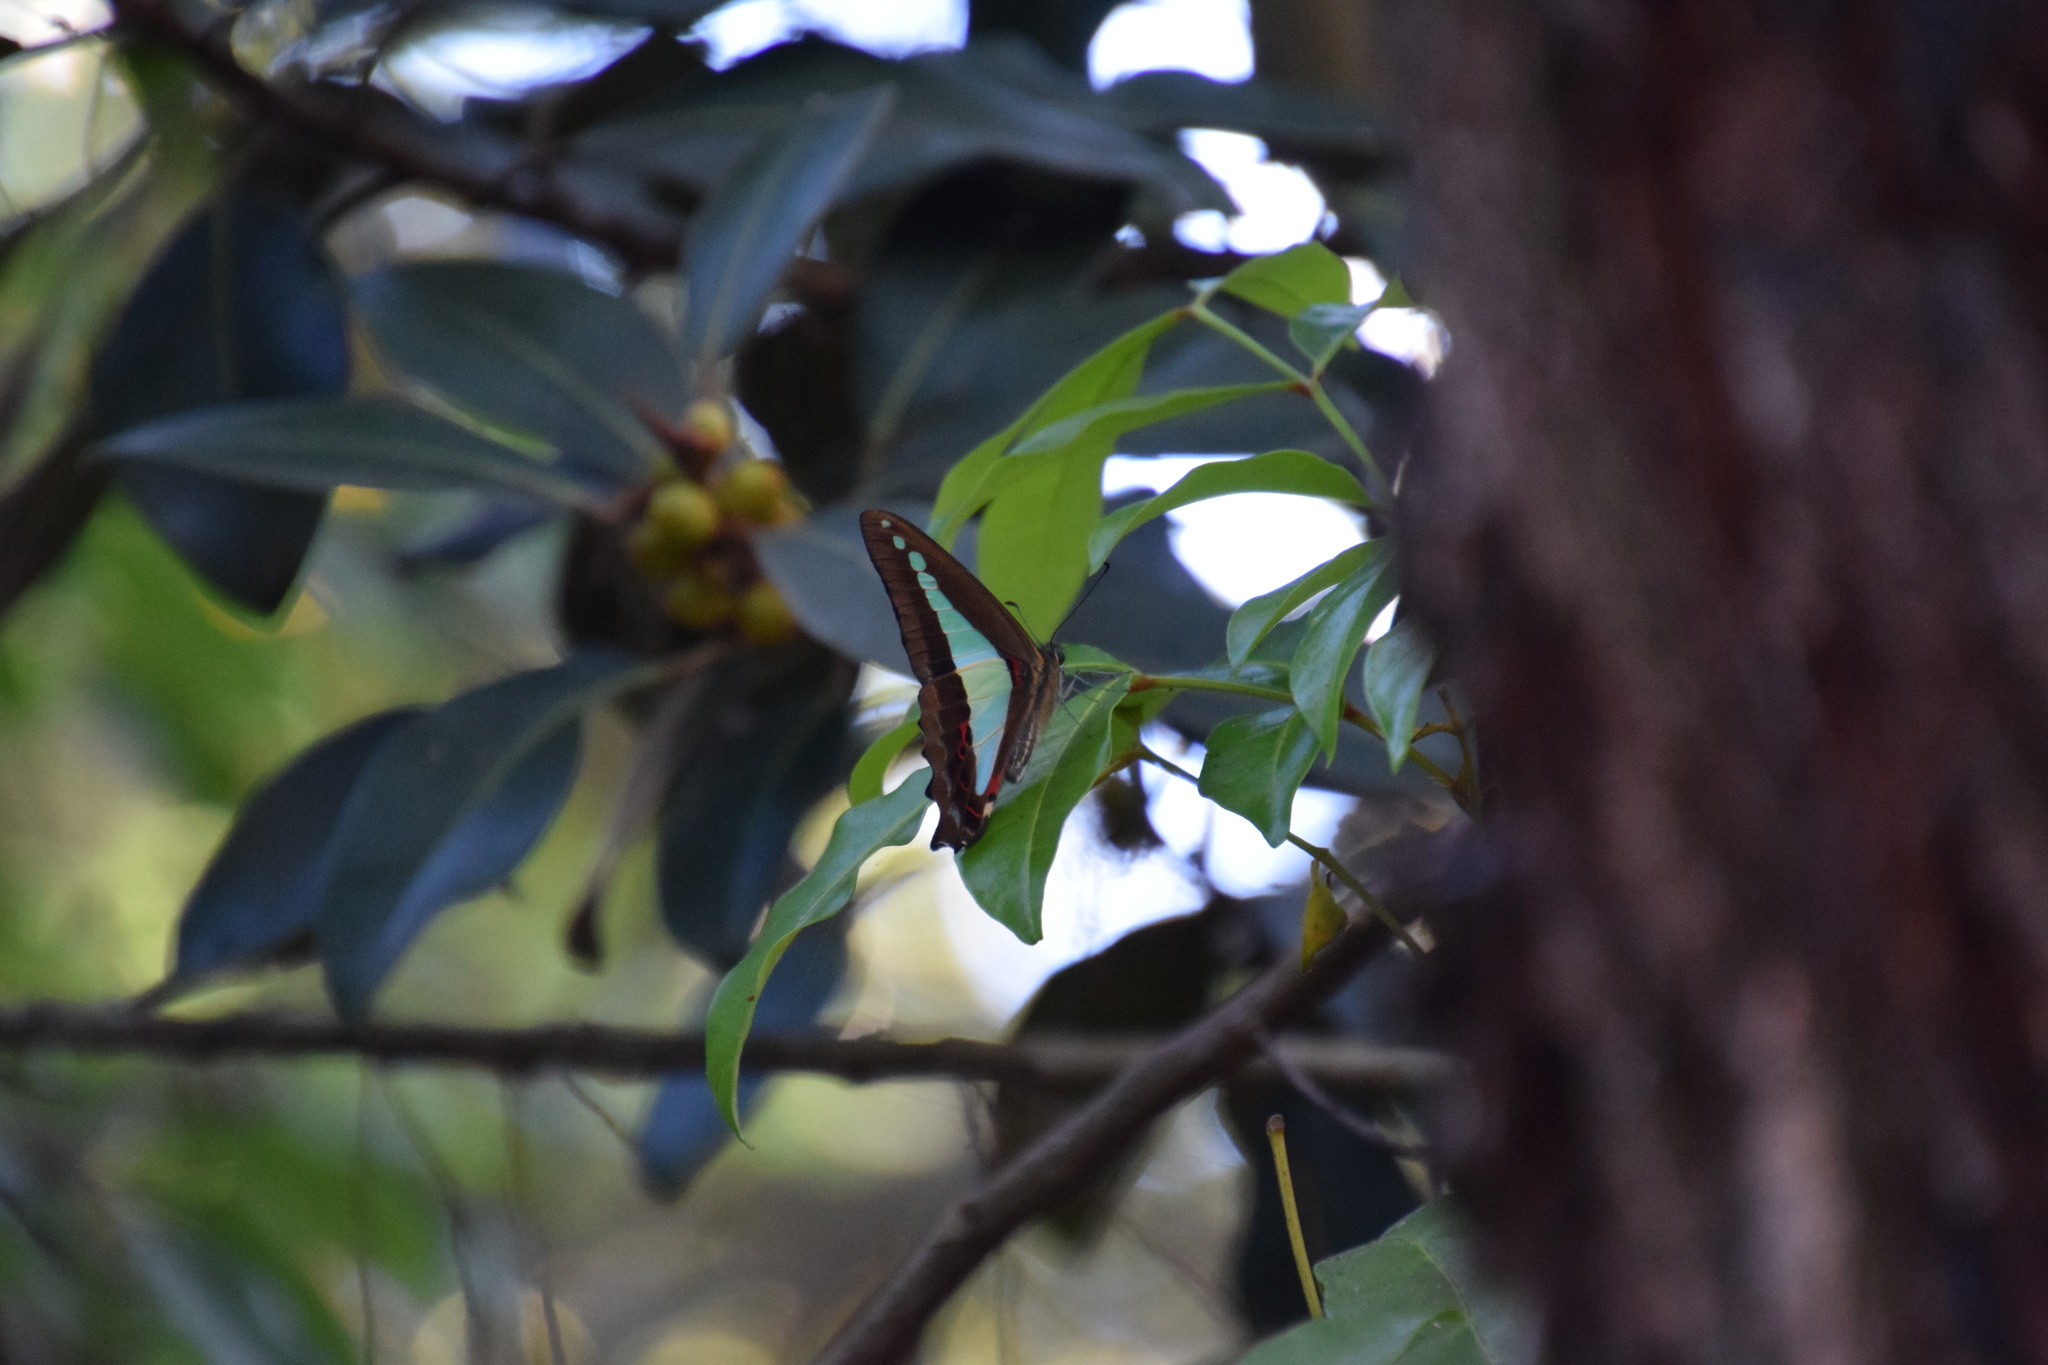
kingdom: Animalia
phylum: Arthropoda
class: Insecta
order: Lepidoptera
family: Papilionidae
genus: Graphium
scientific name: Graphium
